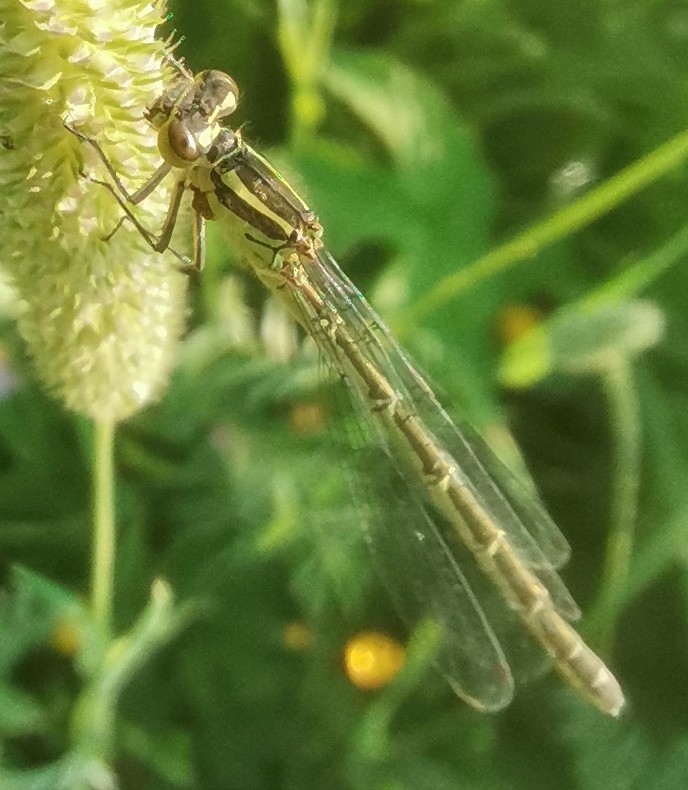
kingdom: Animalia
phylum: Arthropoda
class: Insecta
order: Odonata
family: Coenagrionidae
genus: Coenagrion
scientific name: Coenagrion hastulatum
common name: Spearhead bluet
